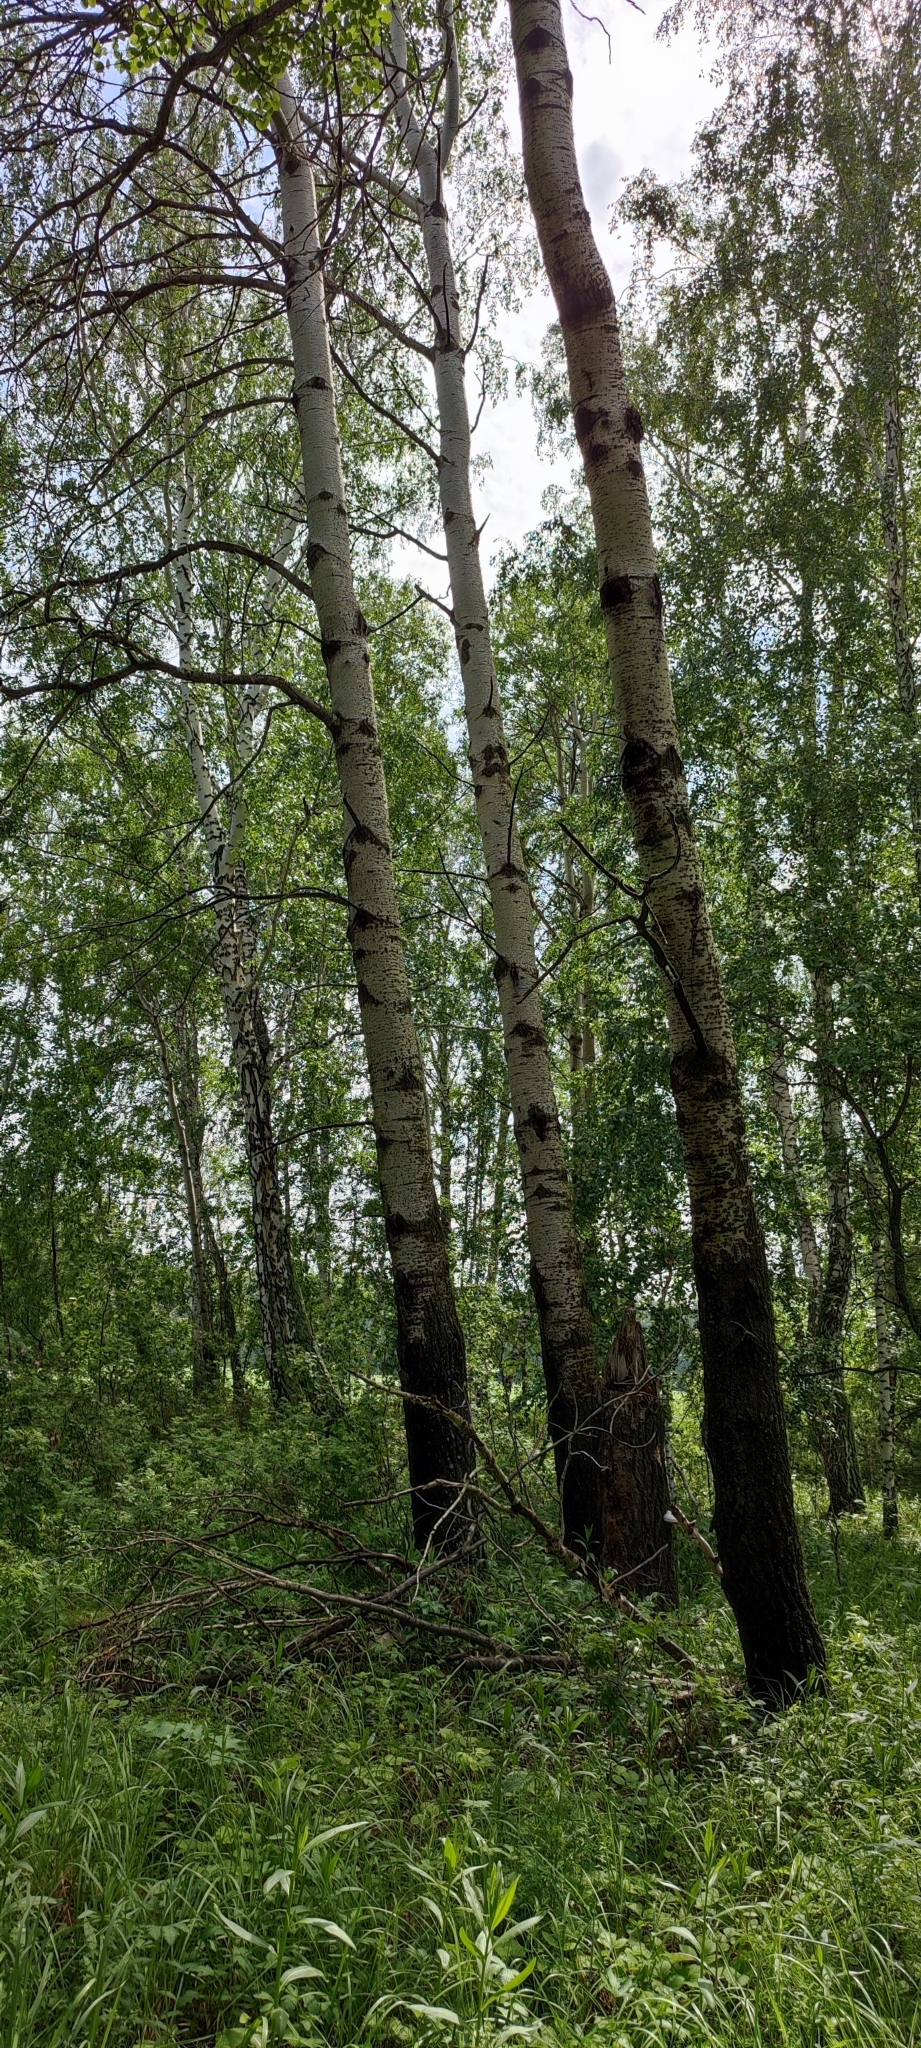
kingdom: Plantae
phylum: Tracheophyta
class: Magnoliopsida
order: Malpighiales
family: Salicaceae
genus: Populus
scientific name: Populus tremula
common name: European aspen
